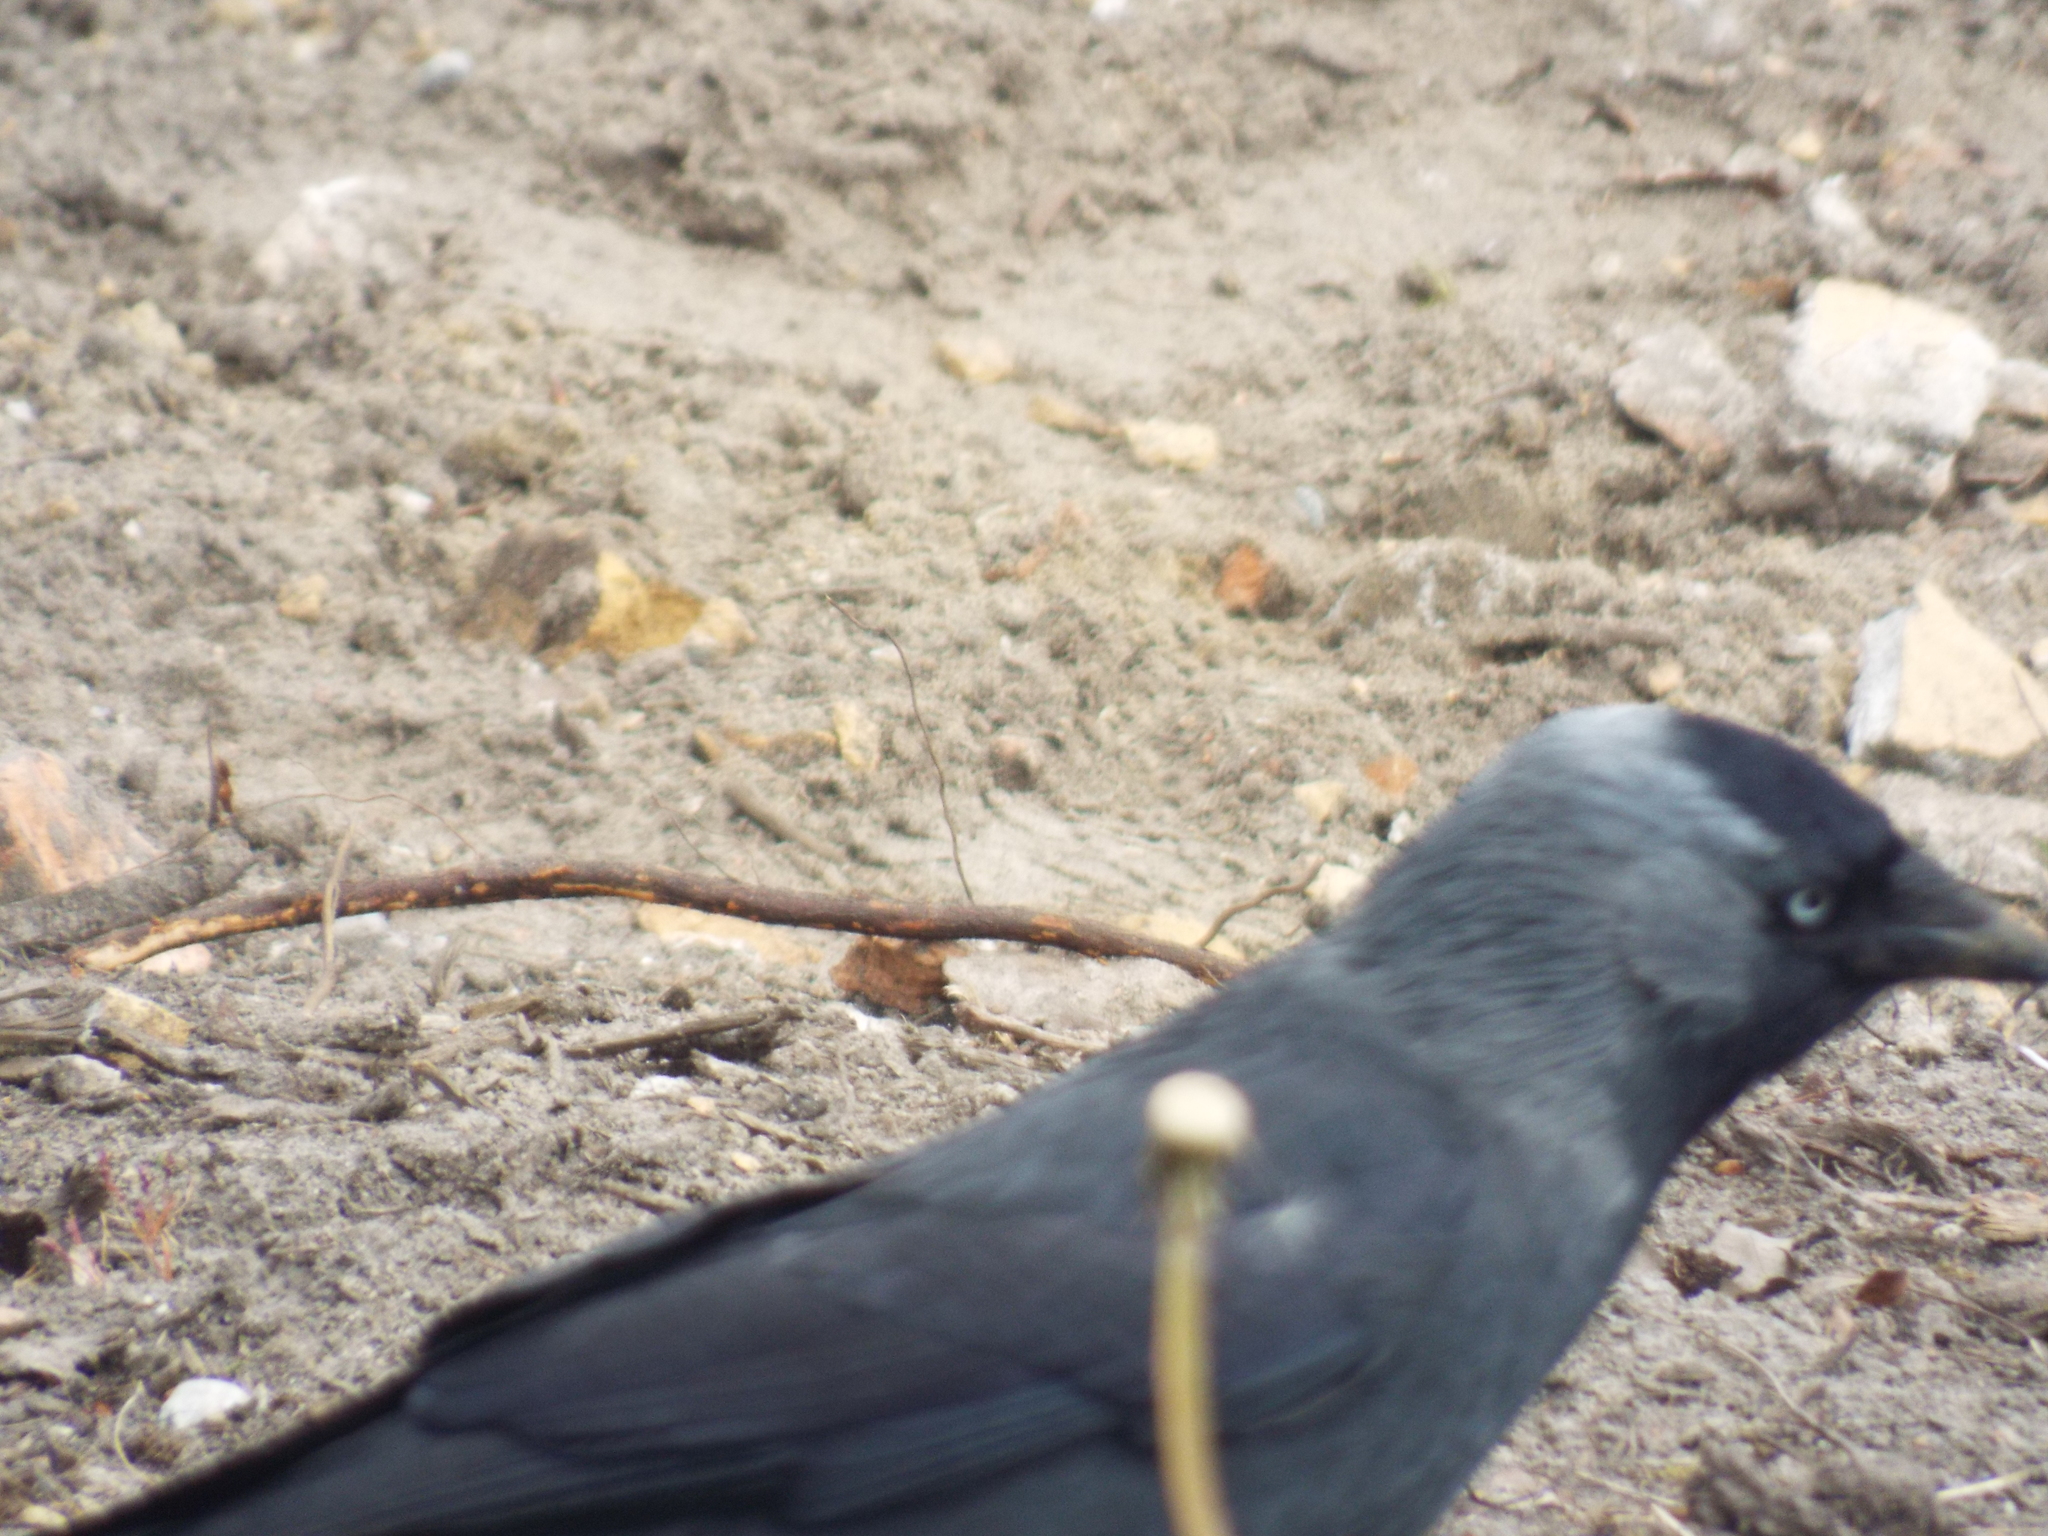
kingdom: Animalia
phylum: Chordata
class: Aves
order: Passeriformes
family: Corvidae
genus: Coloeus
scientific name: Coloeus monedula
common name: Western jackdaw
